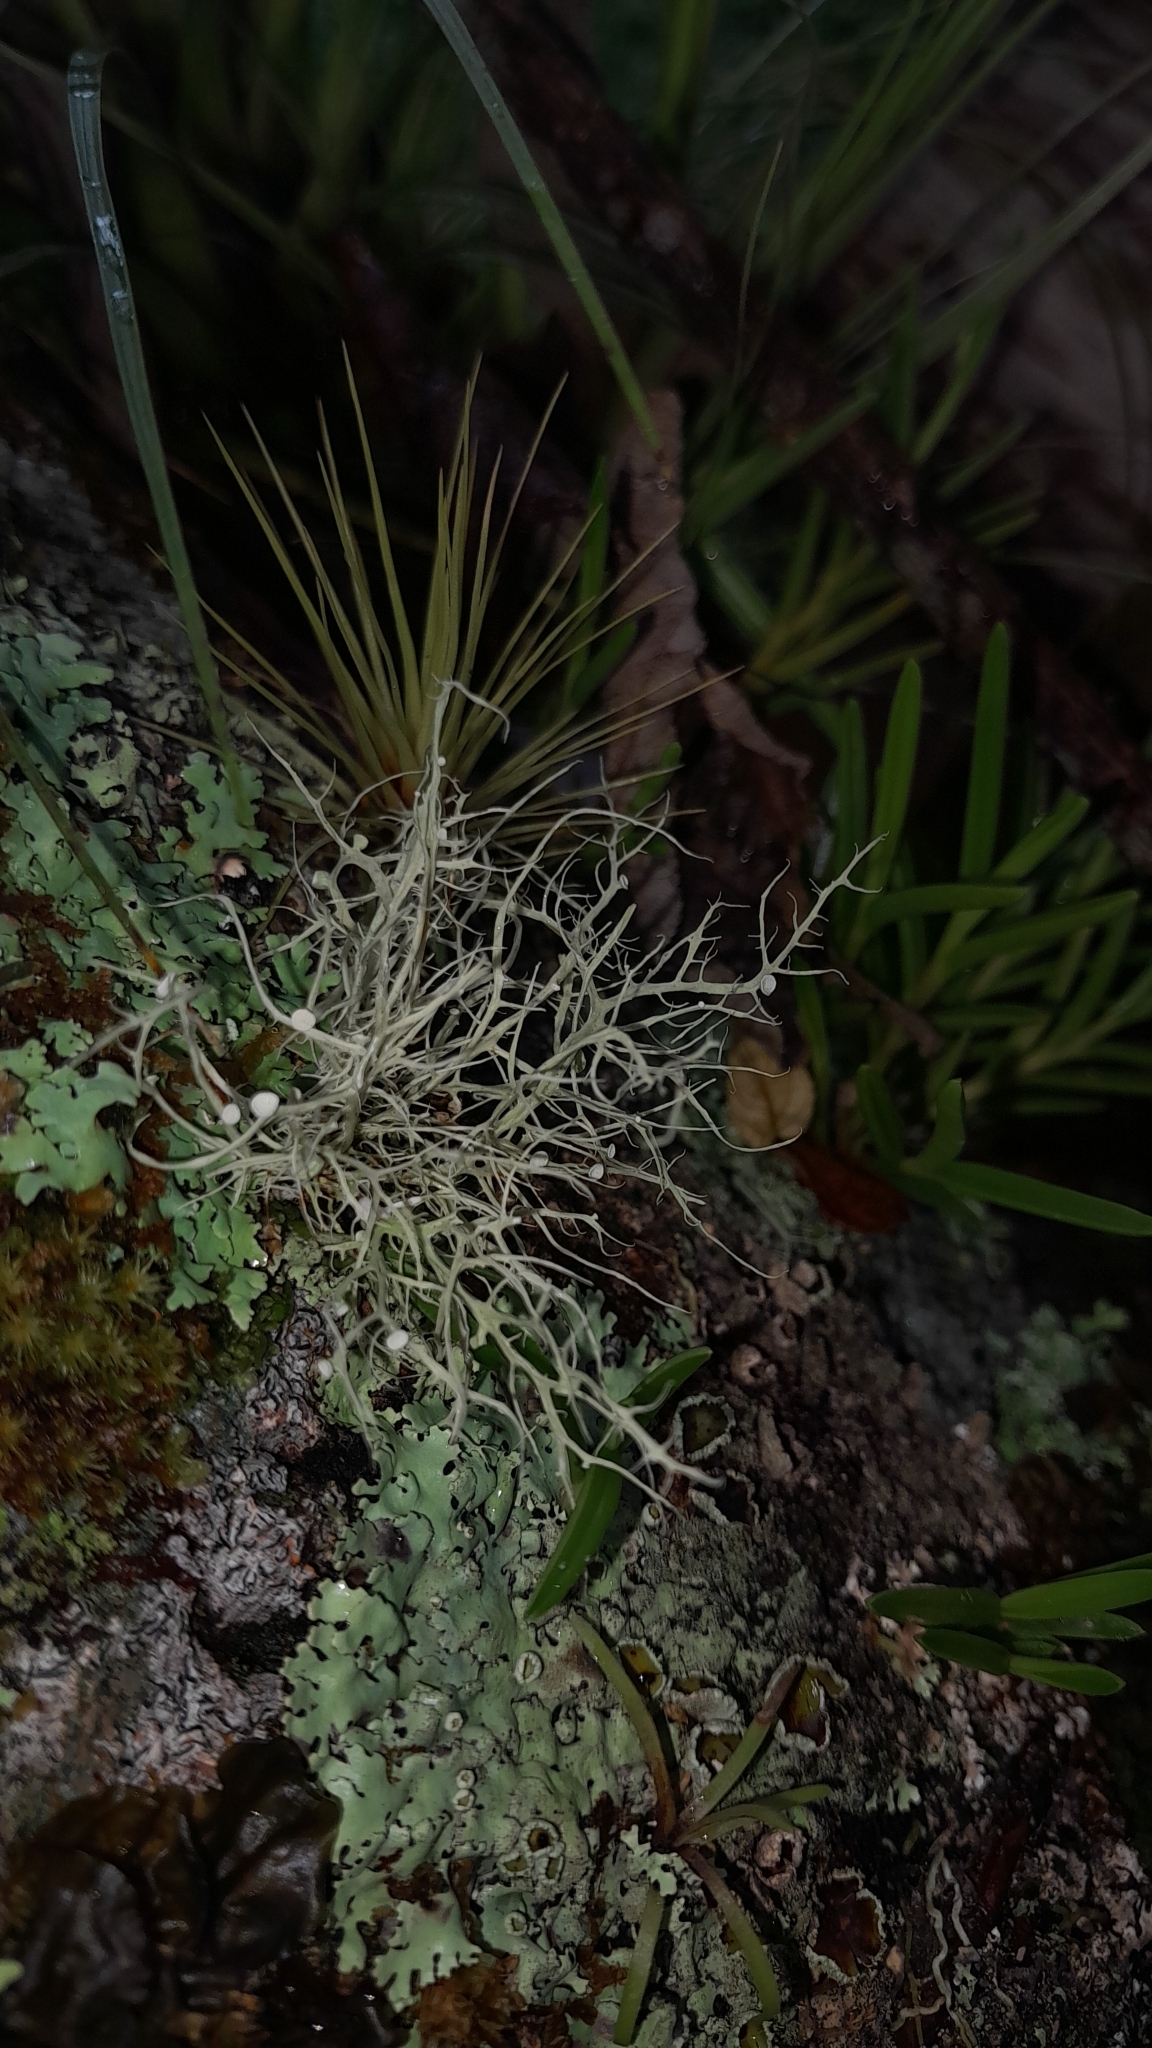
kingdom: Fungi
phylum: Ascomycota
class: Lecanoromycetes
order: Lecanorales
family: Parmeliaceae
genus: Usnea
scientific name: Usnea subfloridana
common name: Boreal beard lichen
